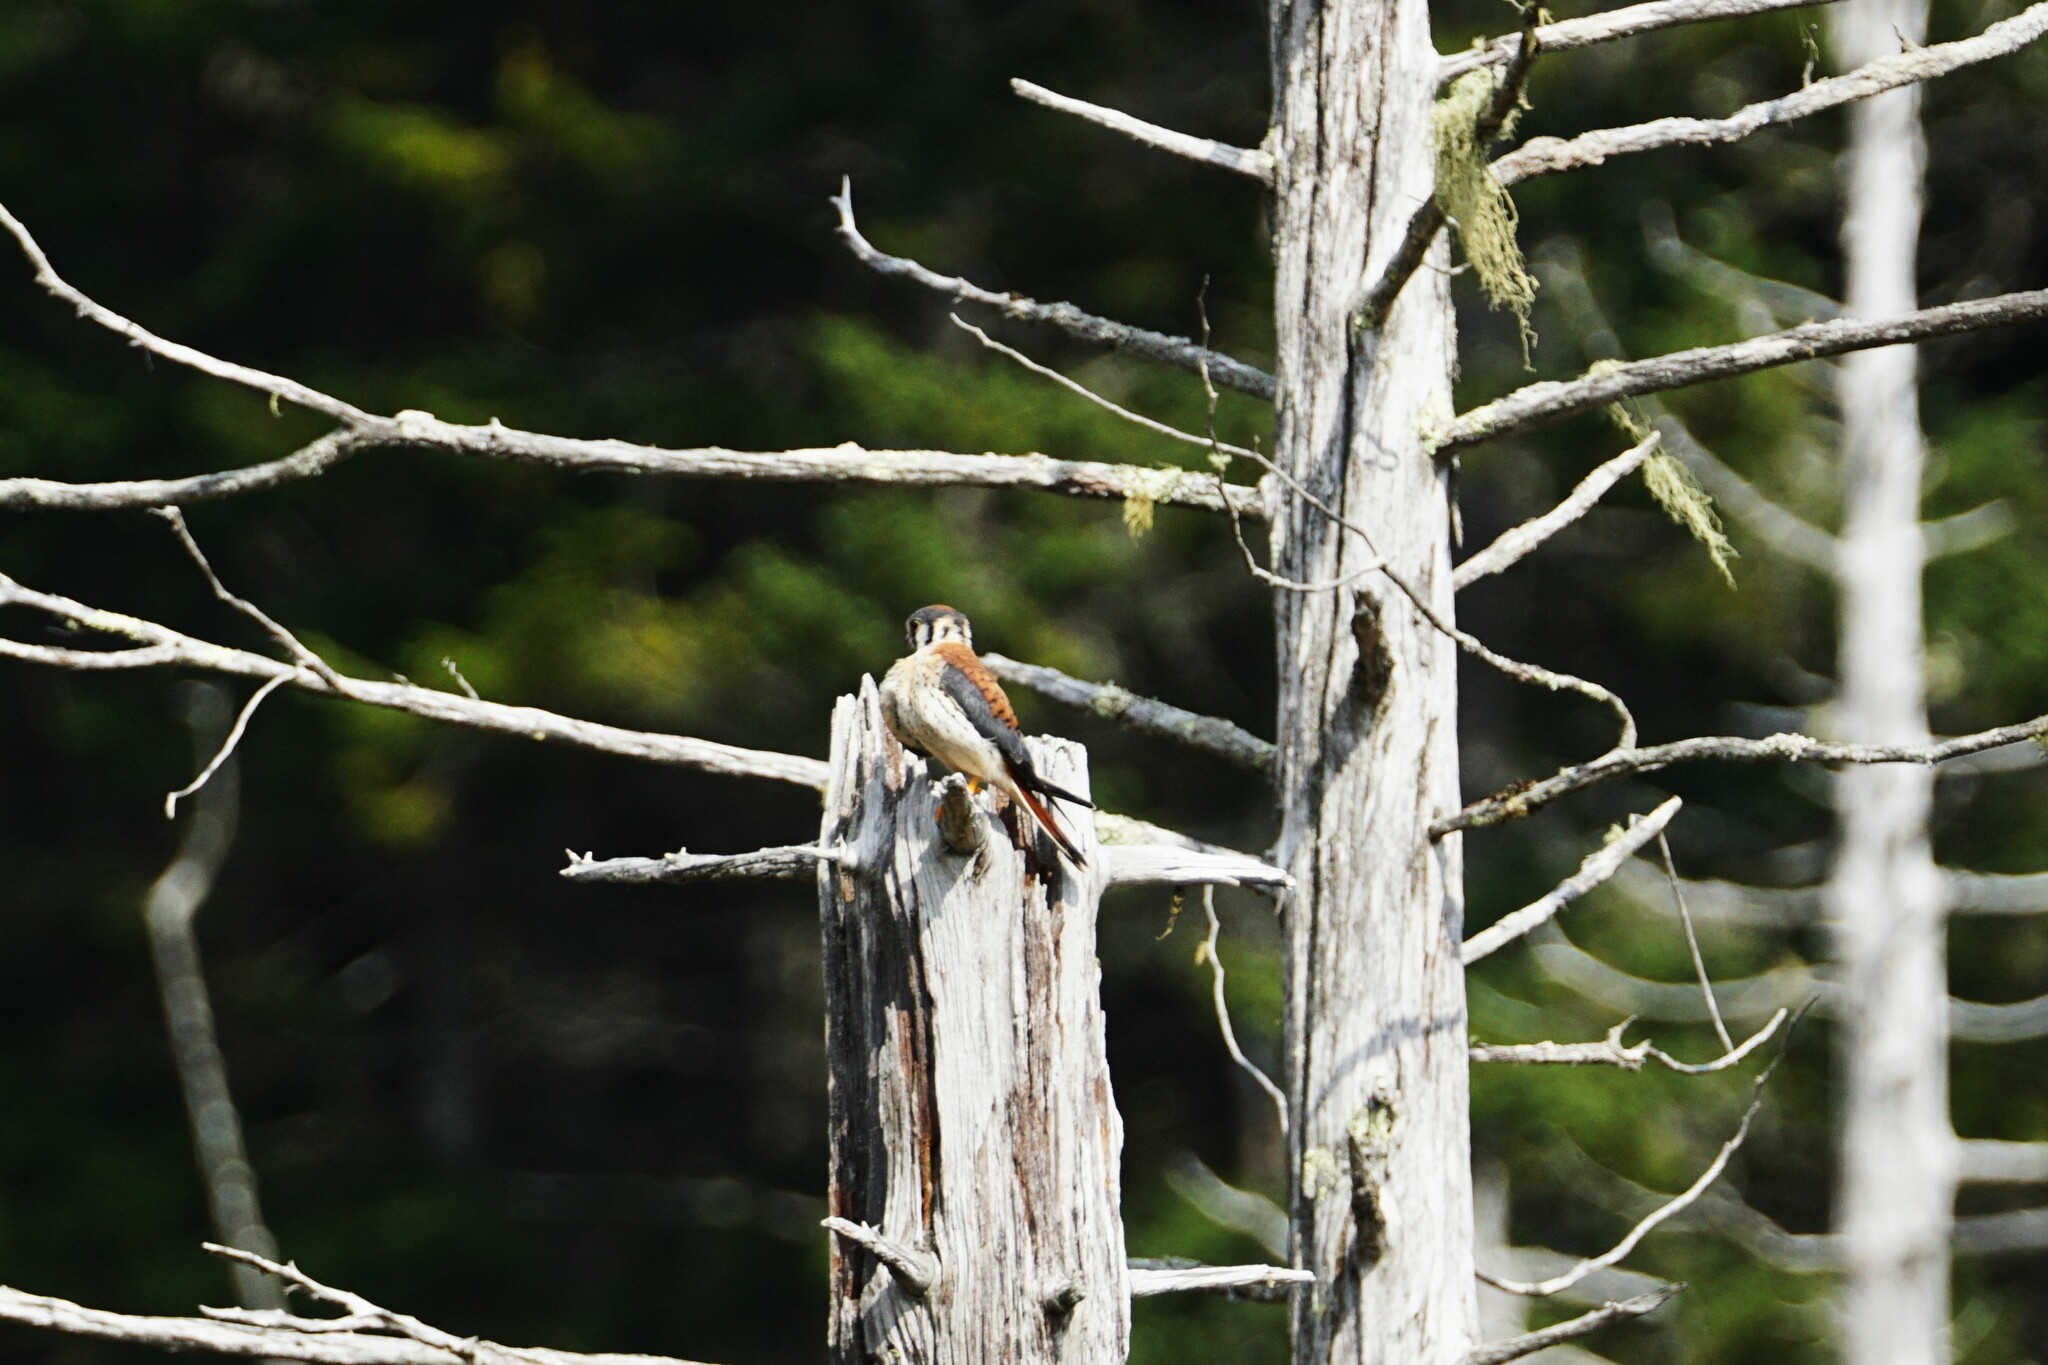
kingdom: Animalia
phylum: Chordata
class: Aves
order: Falconiformes
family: Falconidae
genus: Falco
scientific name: Falco sparverius
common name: American kestrel
